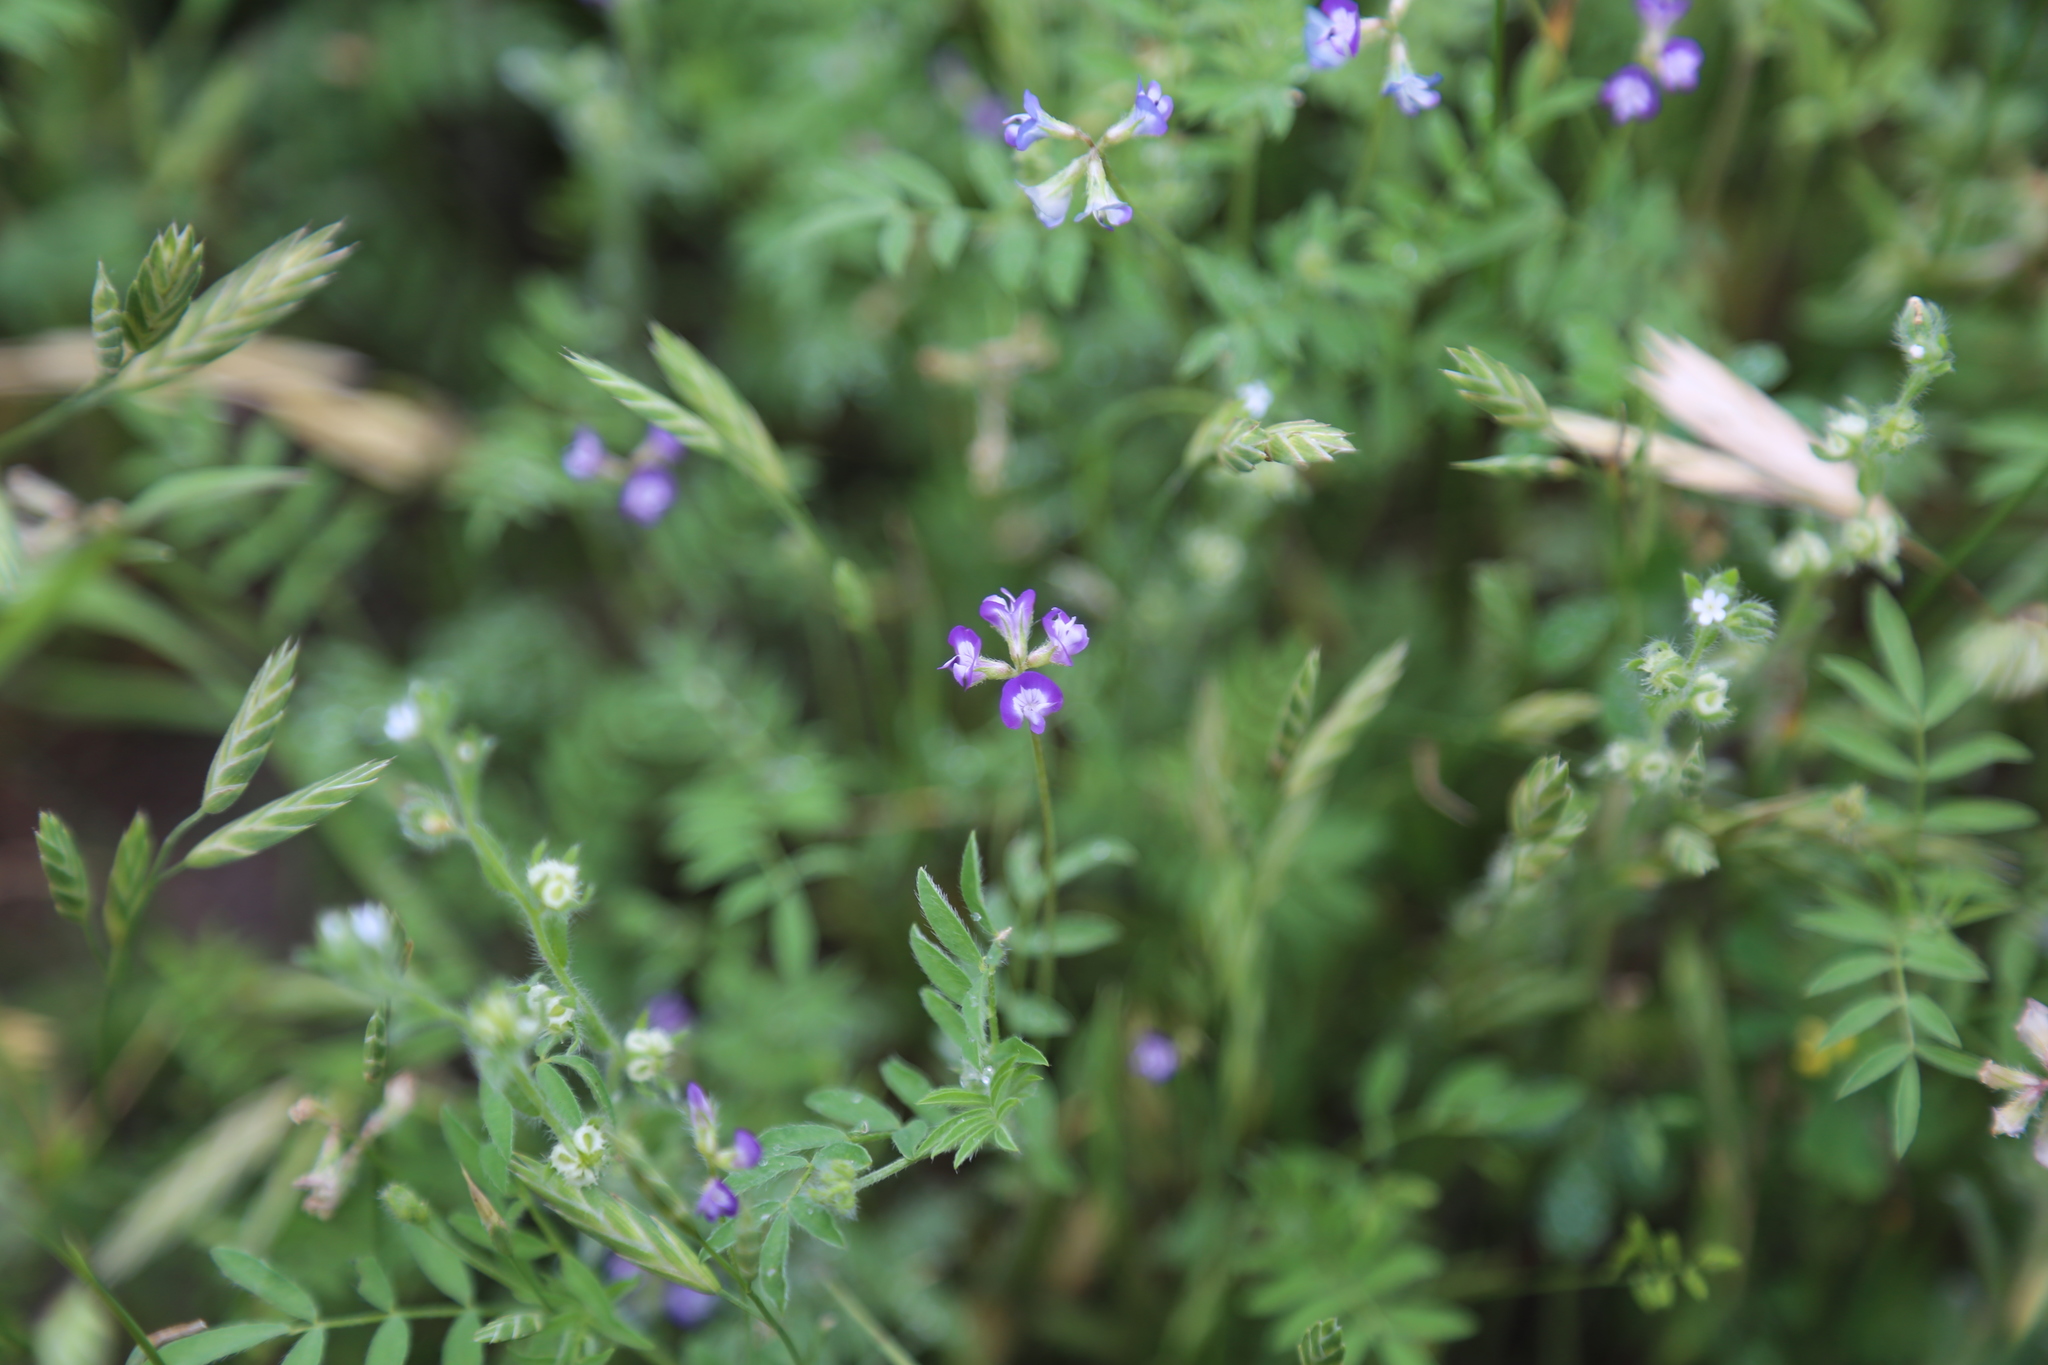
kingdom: Plantae
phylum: Tracheophyta
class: Magnoliopsida
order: Fabales
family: Fabaceae
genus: Astragalus
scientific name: Astragalus nuttallianus
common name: Smallflowered milkvetch
